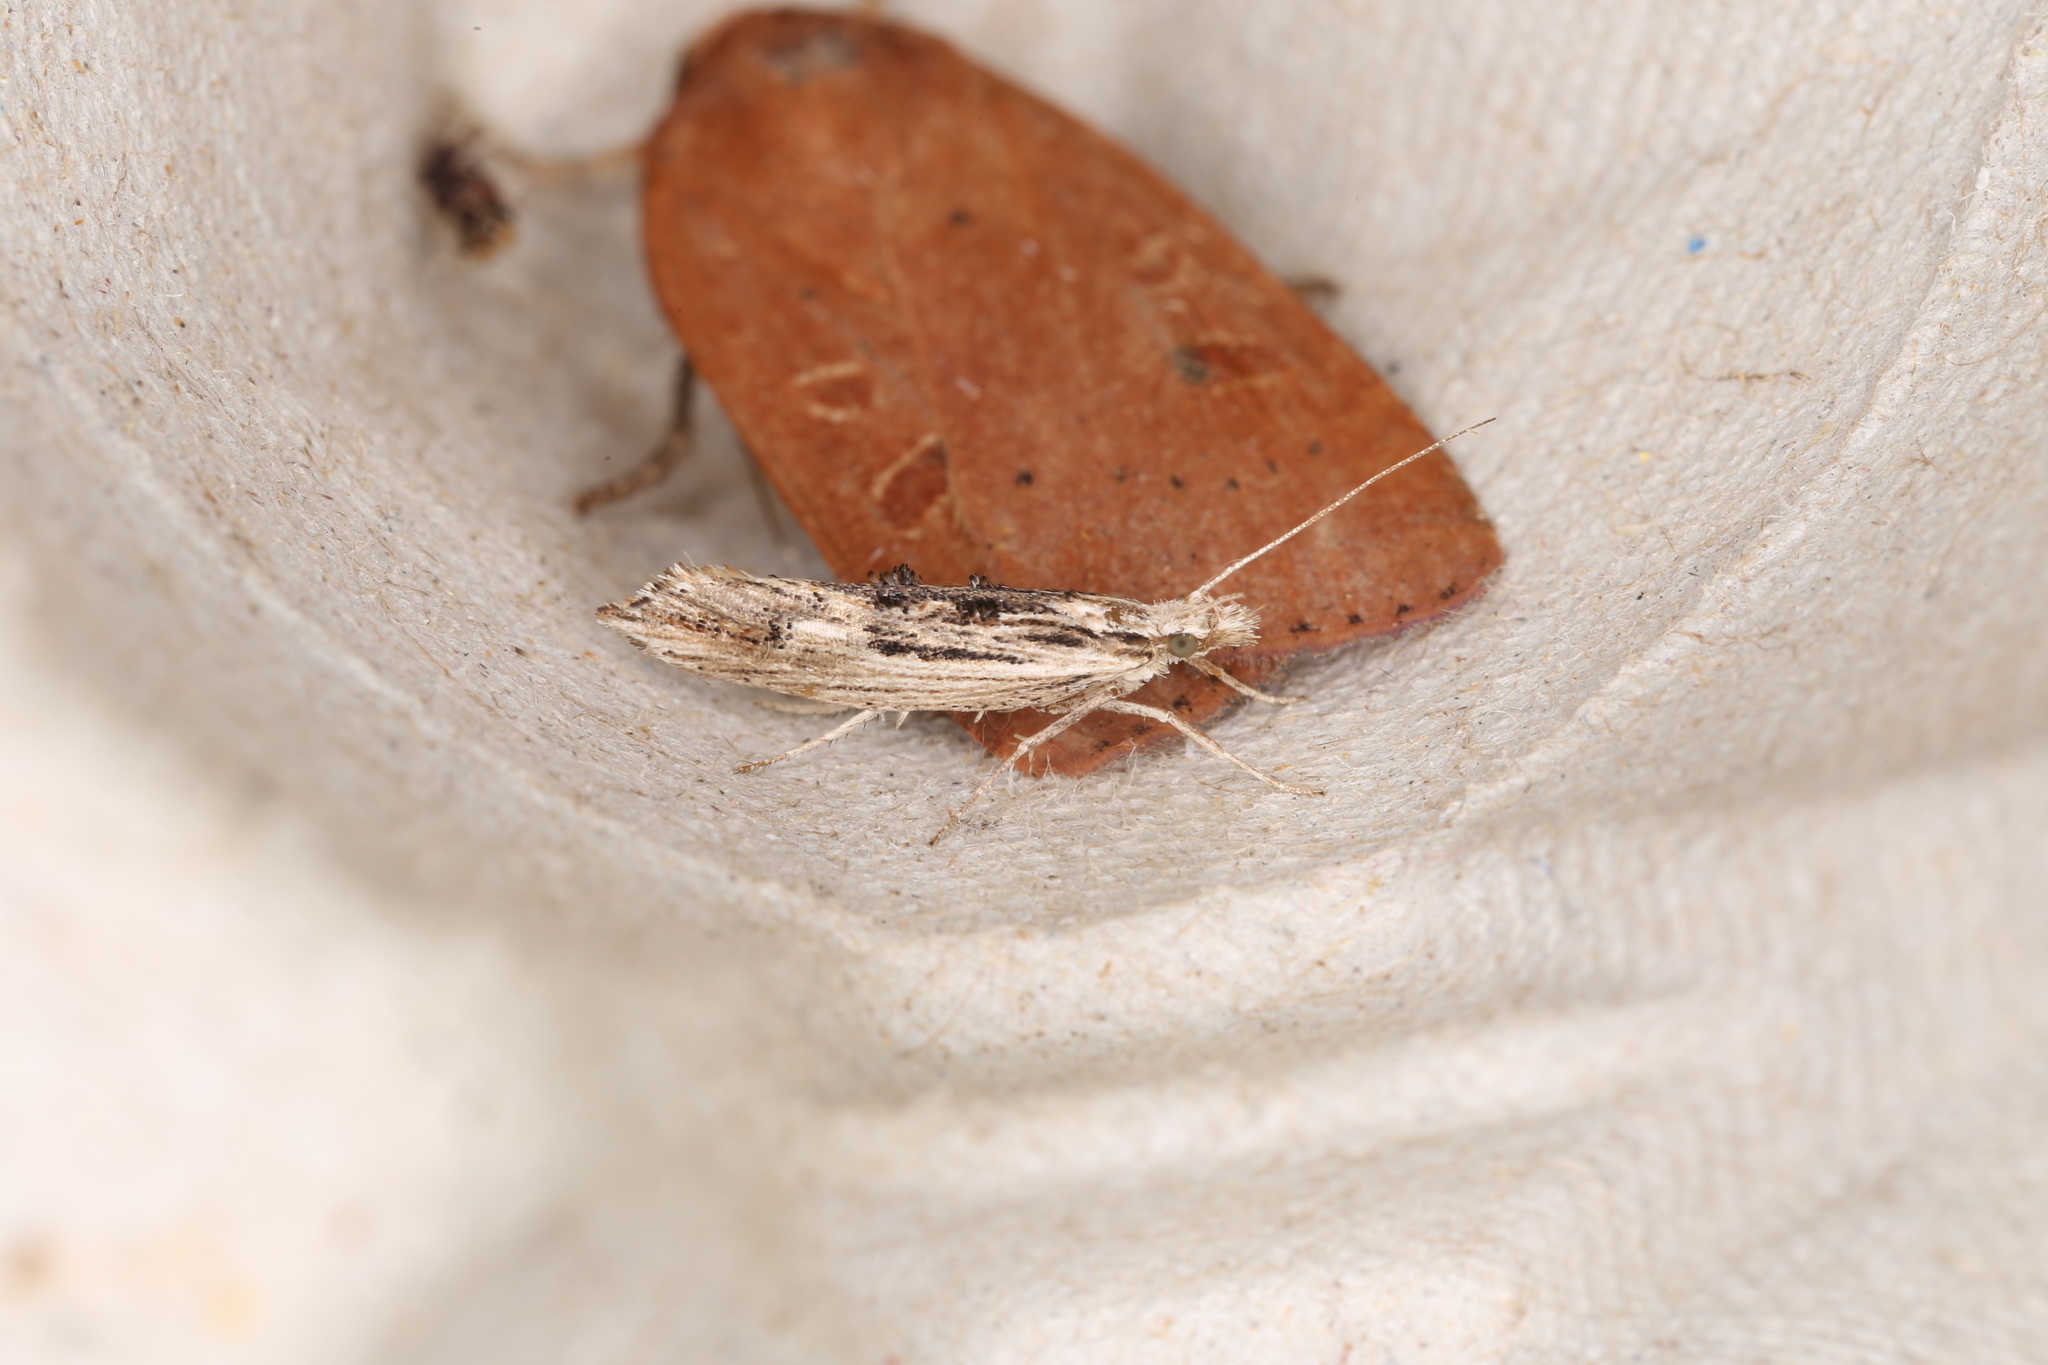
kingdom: Animalia
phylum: Arthropoda
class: Insecta
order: Lepidoptera
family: Ypsolophidae
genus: Ypsolopha
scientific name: Ypsolopha scabrella
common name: Wainscot smudge
